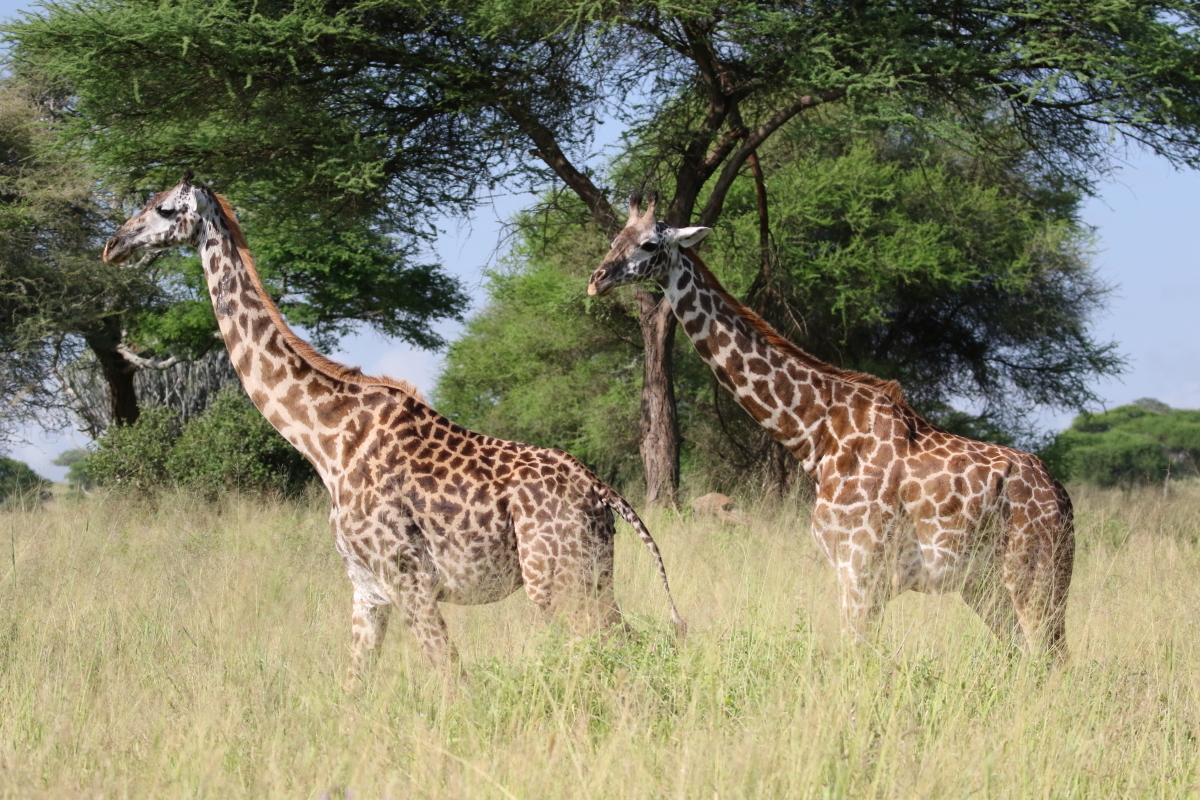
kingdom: Animalia
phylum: Chordata
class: Mammalia
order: Artiodactyla
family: Giraffidae
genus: Giraffa
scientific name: Giraffa tippelskirchi
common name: Masai giraffe
